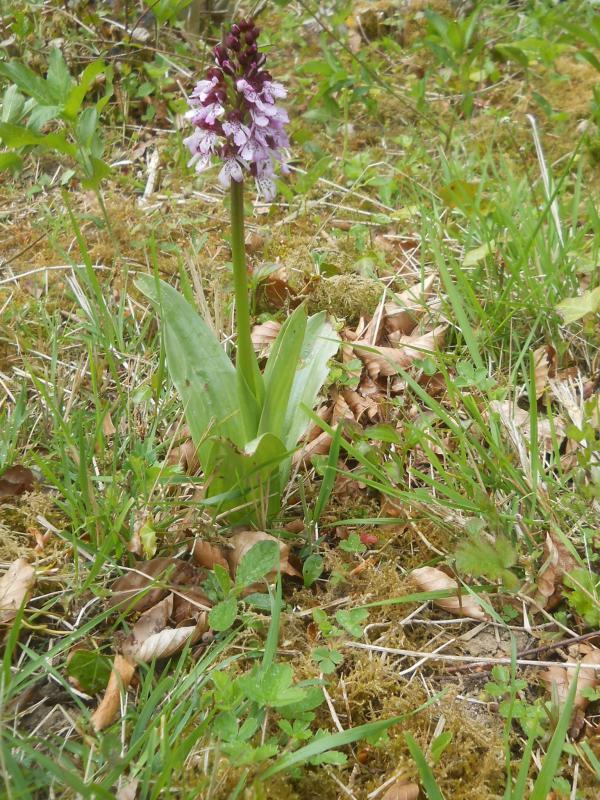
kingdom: Plantae
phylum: Tracheophyta
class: Liliopsida
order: Asparagales
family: Orchidaceae
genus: Orchis
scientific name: Orchis purpurea
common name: Lady orchid
